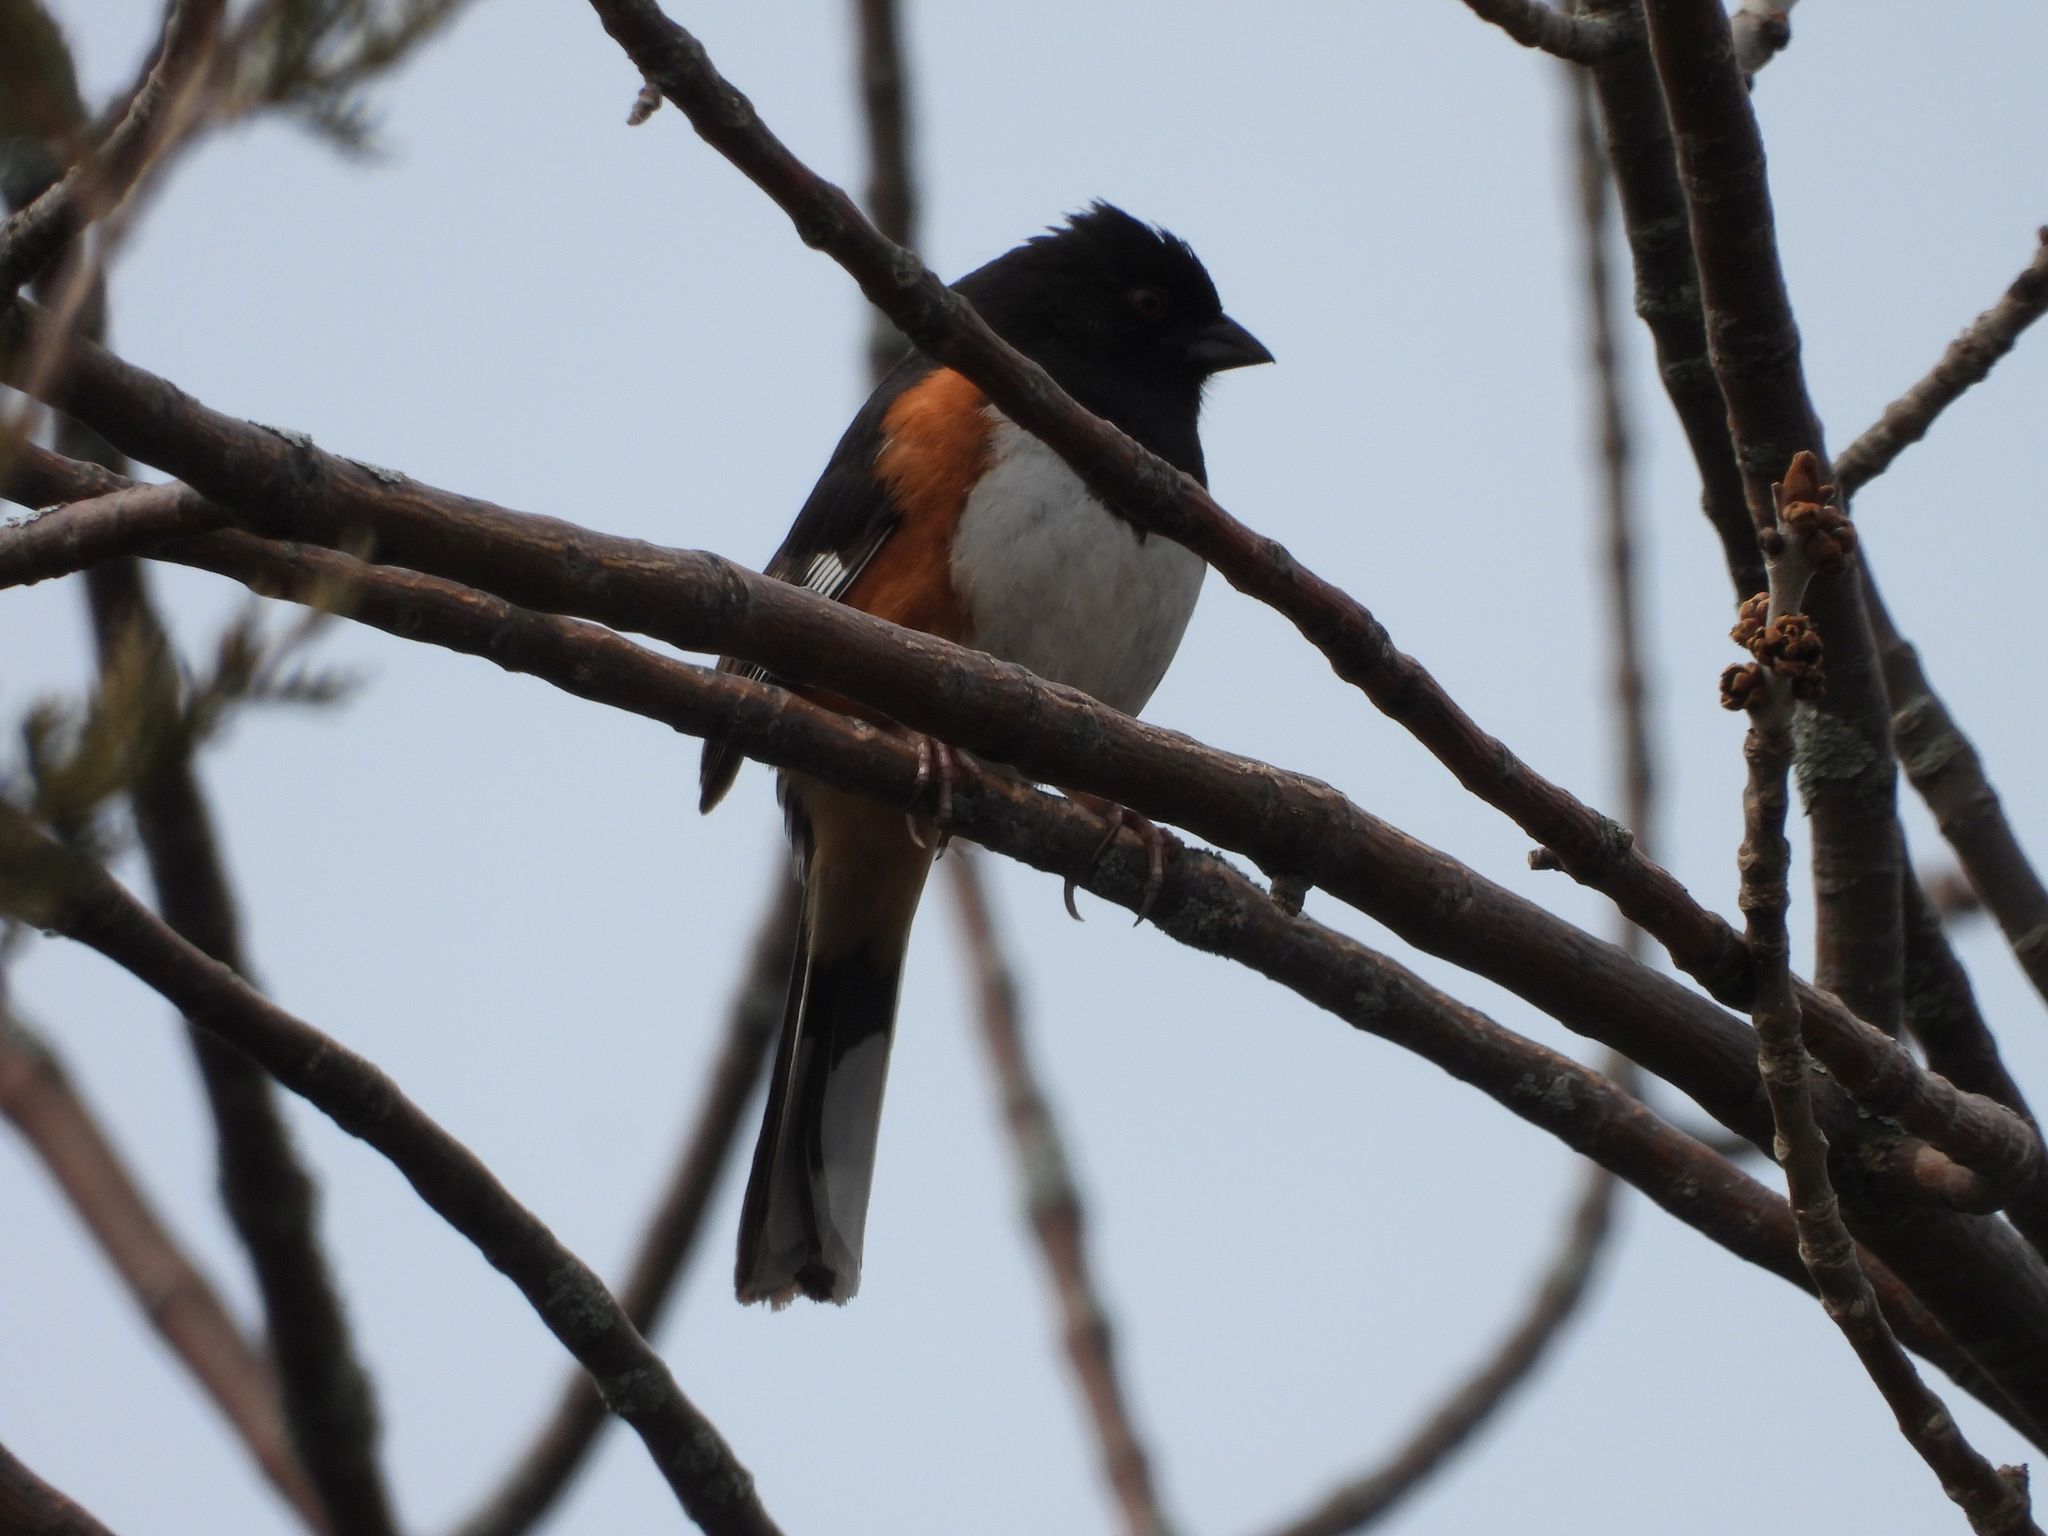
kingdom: Animalia
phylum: Chordata
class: Aves
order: Passeriformes
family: Passerellidae
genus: Pipilo
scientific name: Pipilo erythrophthalmus
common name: Eastern towhee
